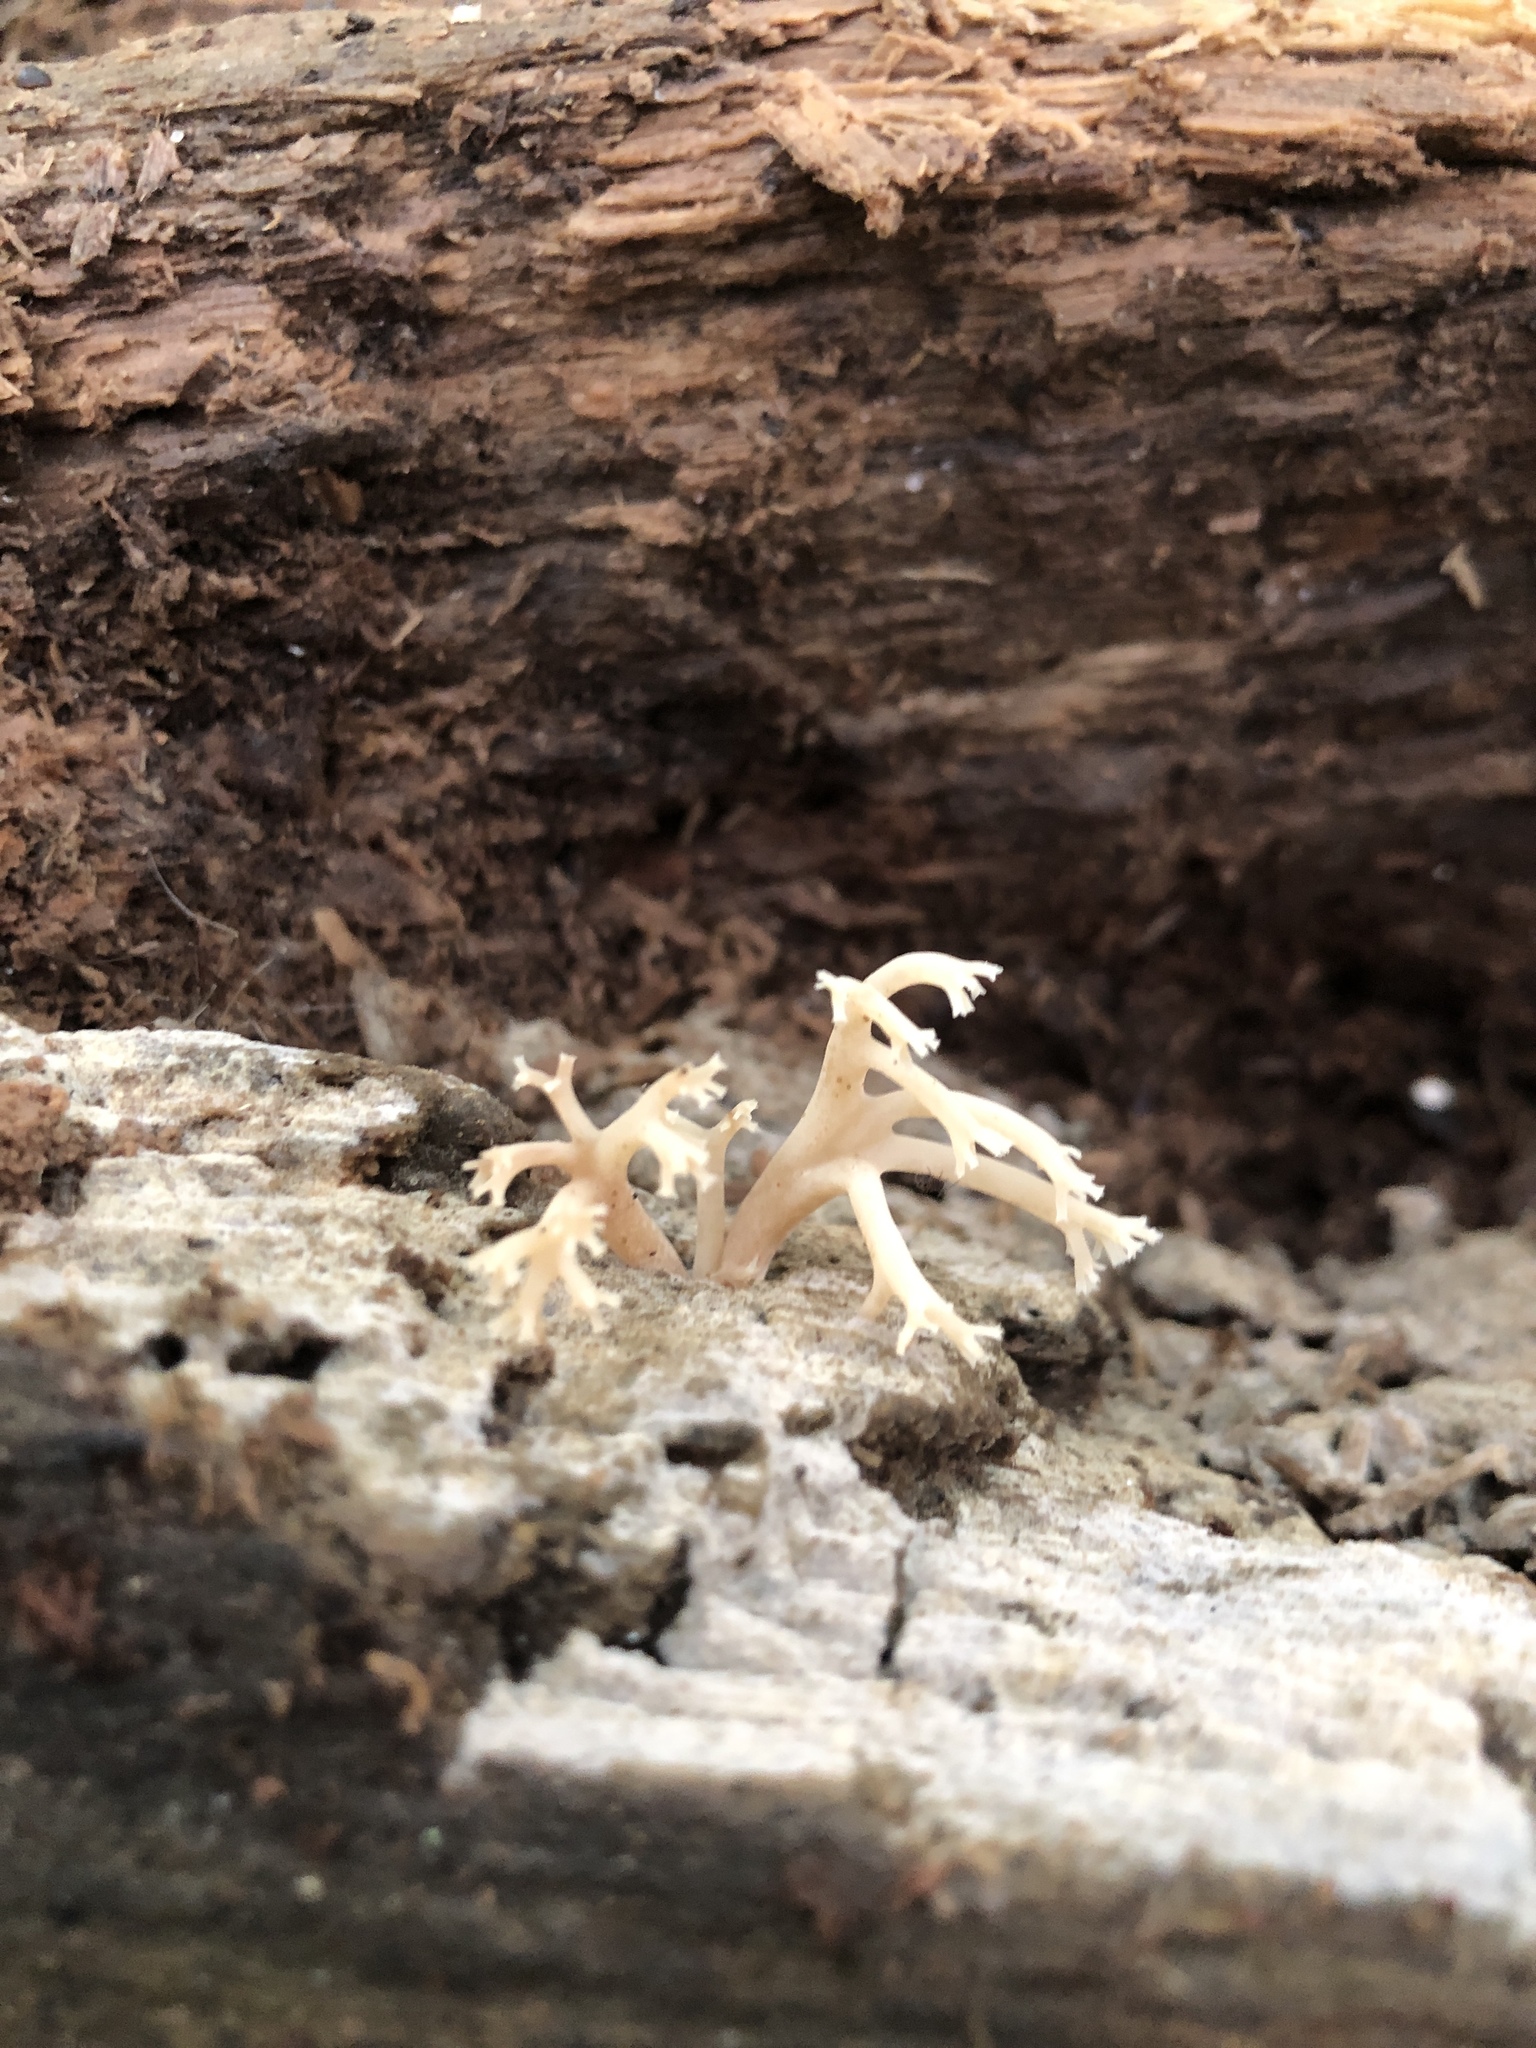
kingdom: Fungi
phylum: Basidiomycota
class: Agaricomycetes
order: Russulales
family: Auriscalpiaceae
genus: Artomyces
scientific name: Artomyces pyxidatus
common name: Crown-tipped coral fungus
